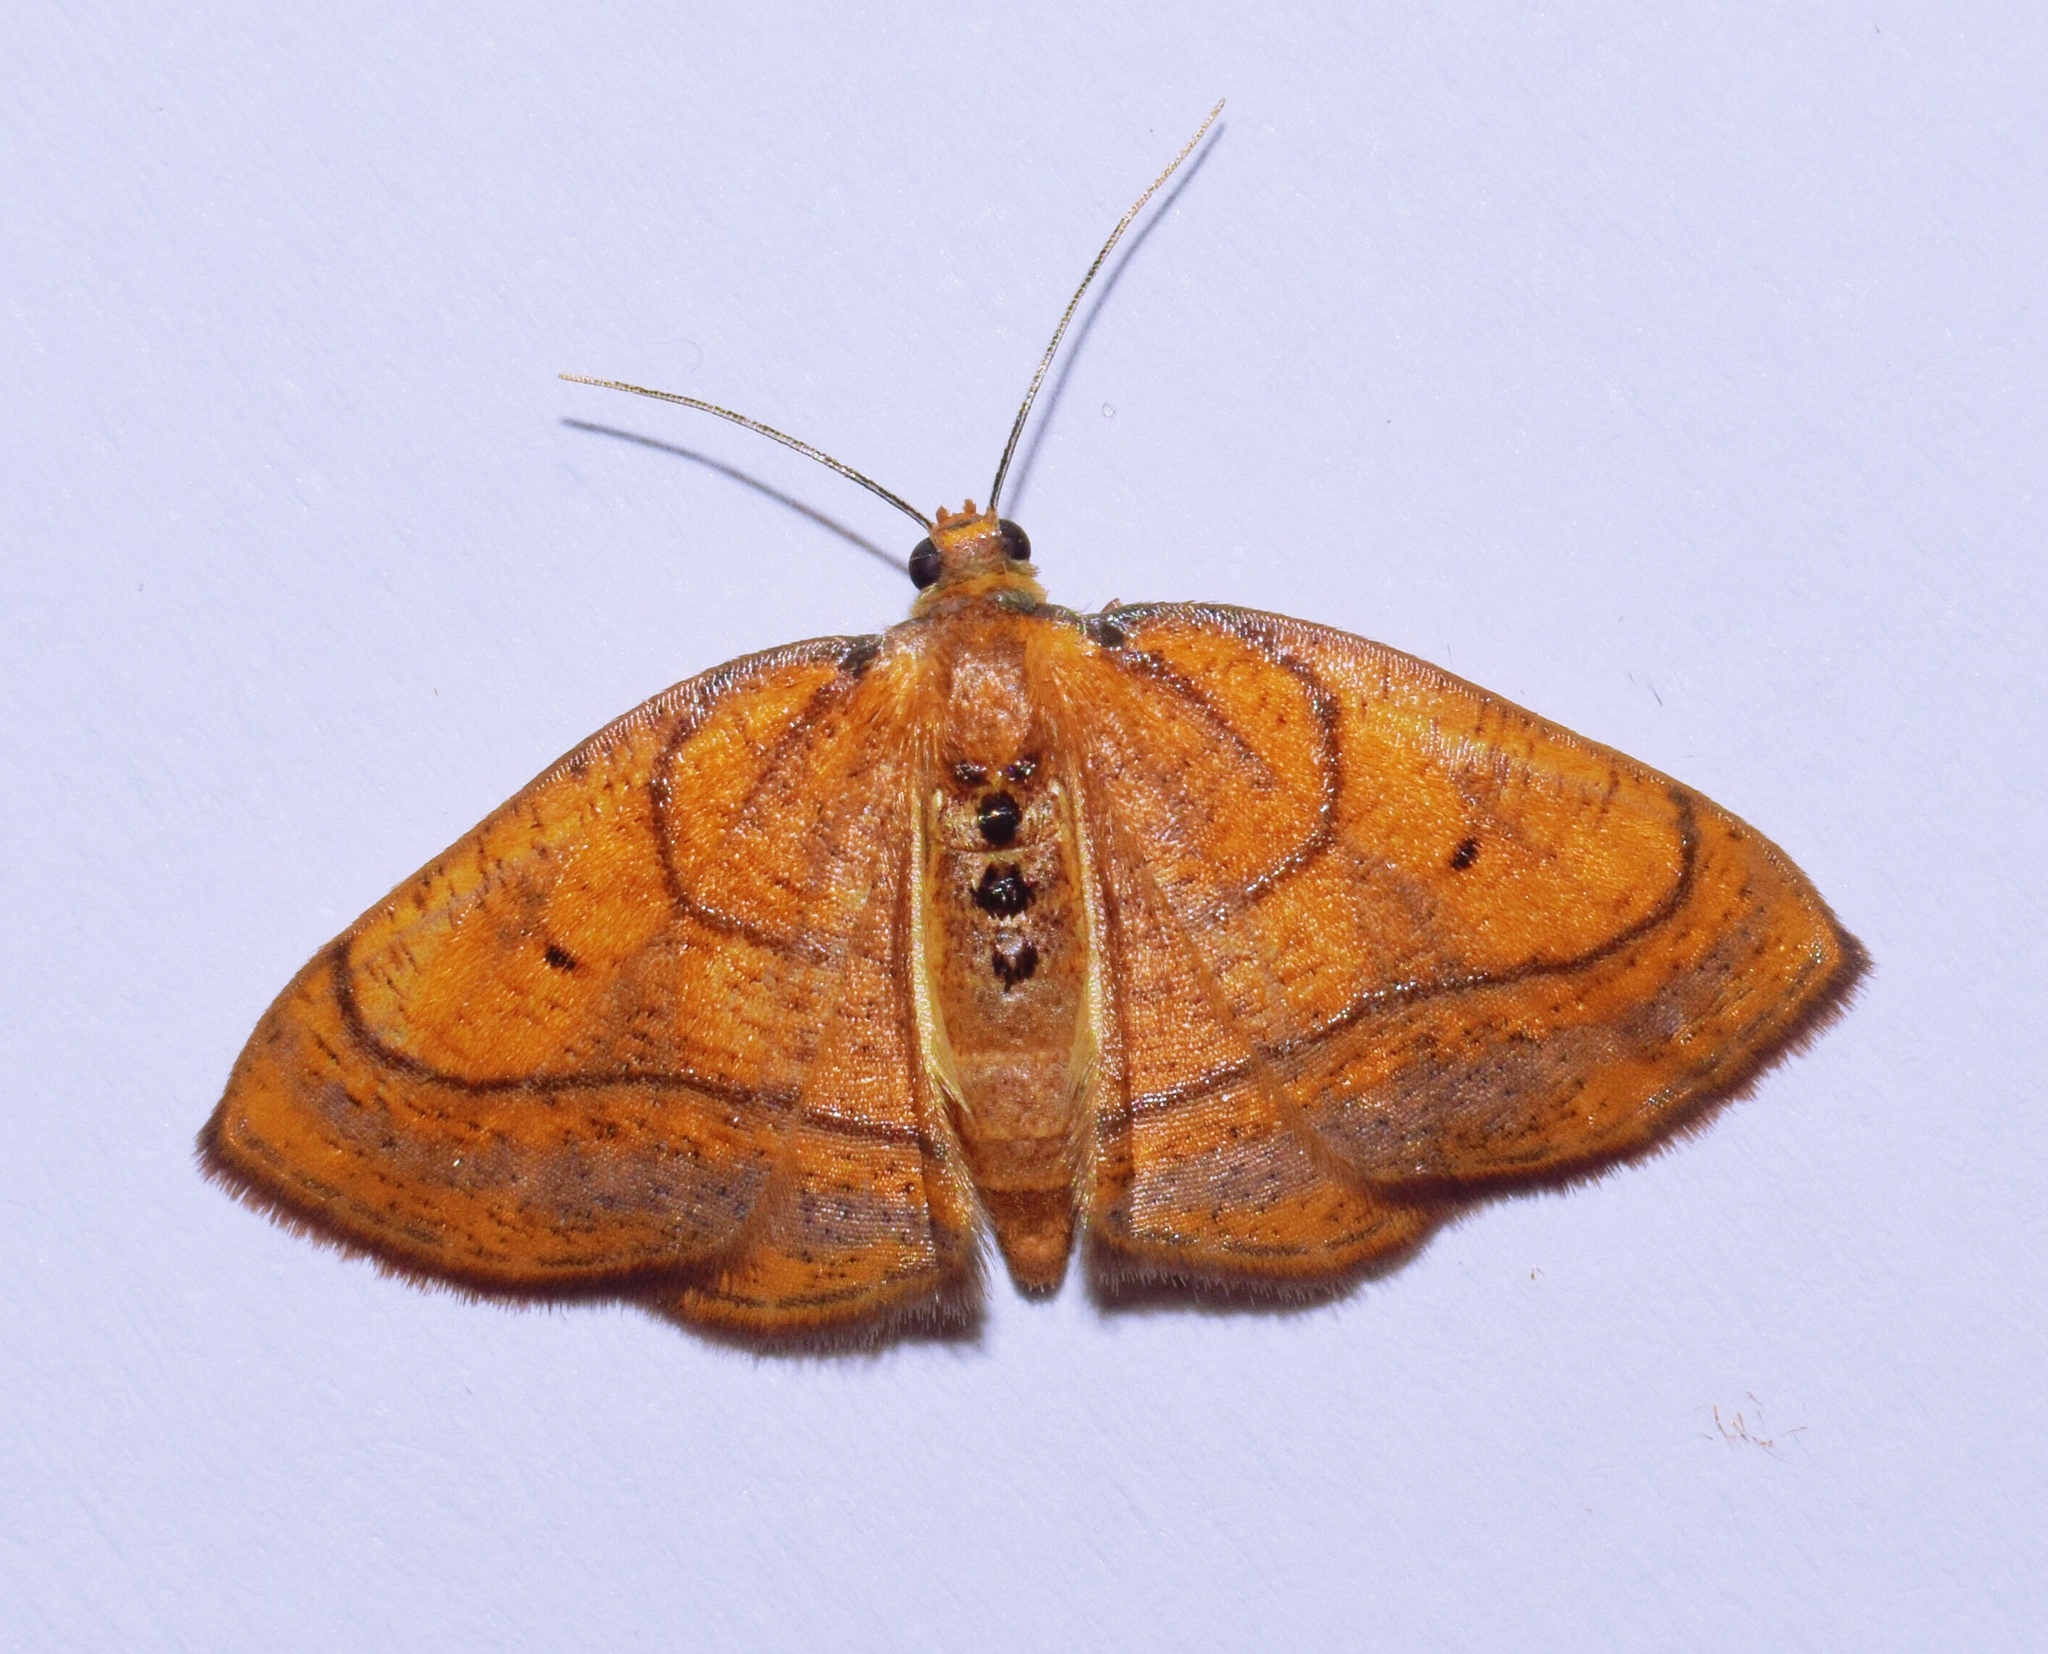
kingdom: Animalia
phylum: Arthropoda
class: Insecta
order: Lepidoptera
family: Geometridae
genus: Oaracta
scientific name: Oaracta auricincta
